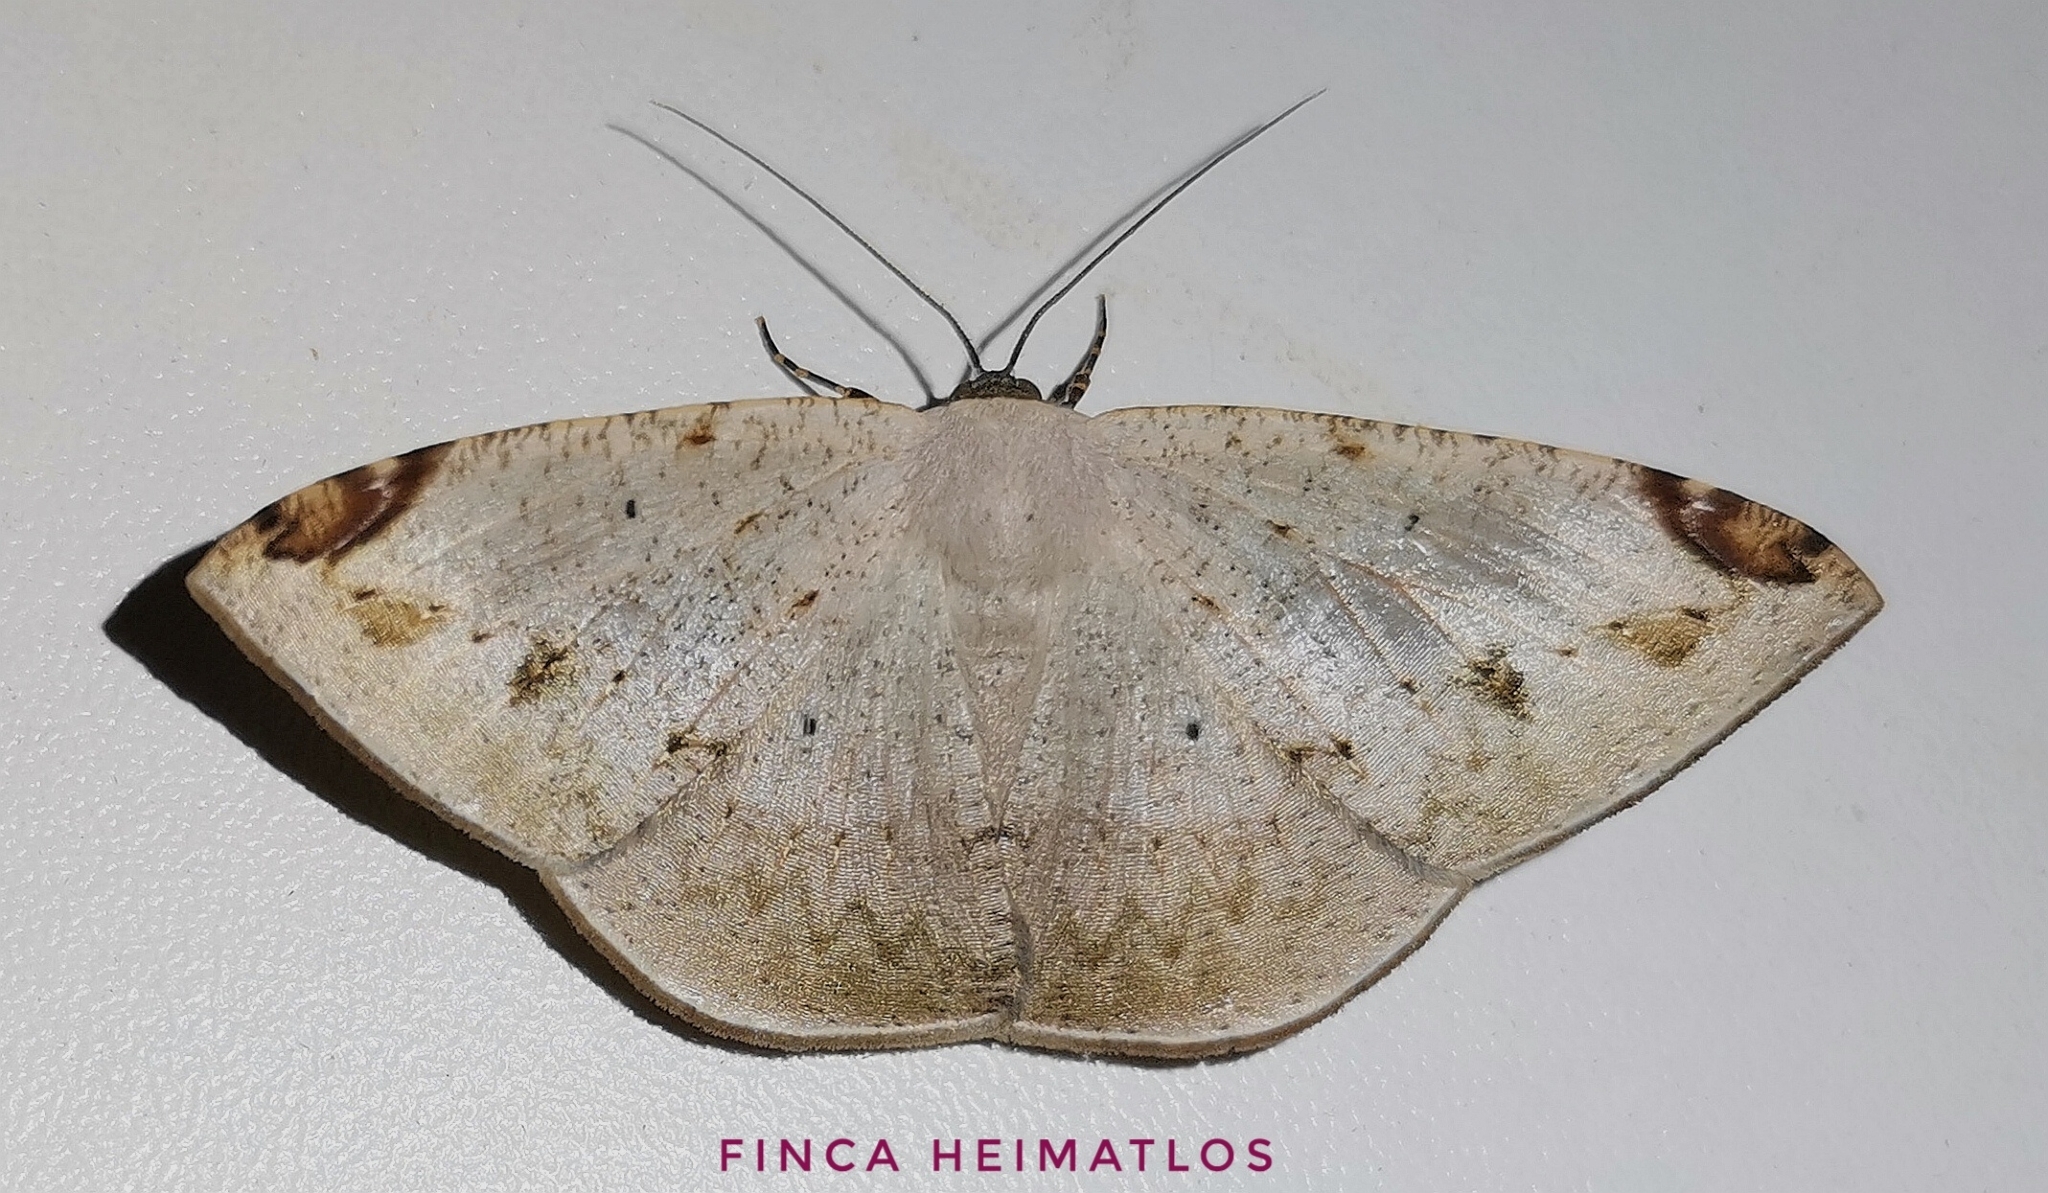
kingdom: Animalia
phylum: Arthropoda
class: Insecta
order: Lepidoptera
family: Geometridae
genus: Herbita
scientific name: Herbita versilinea
